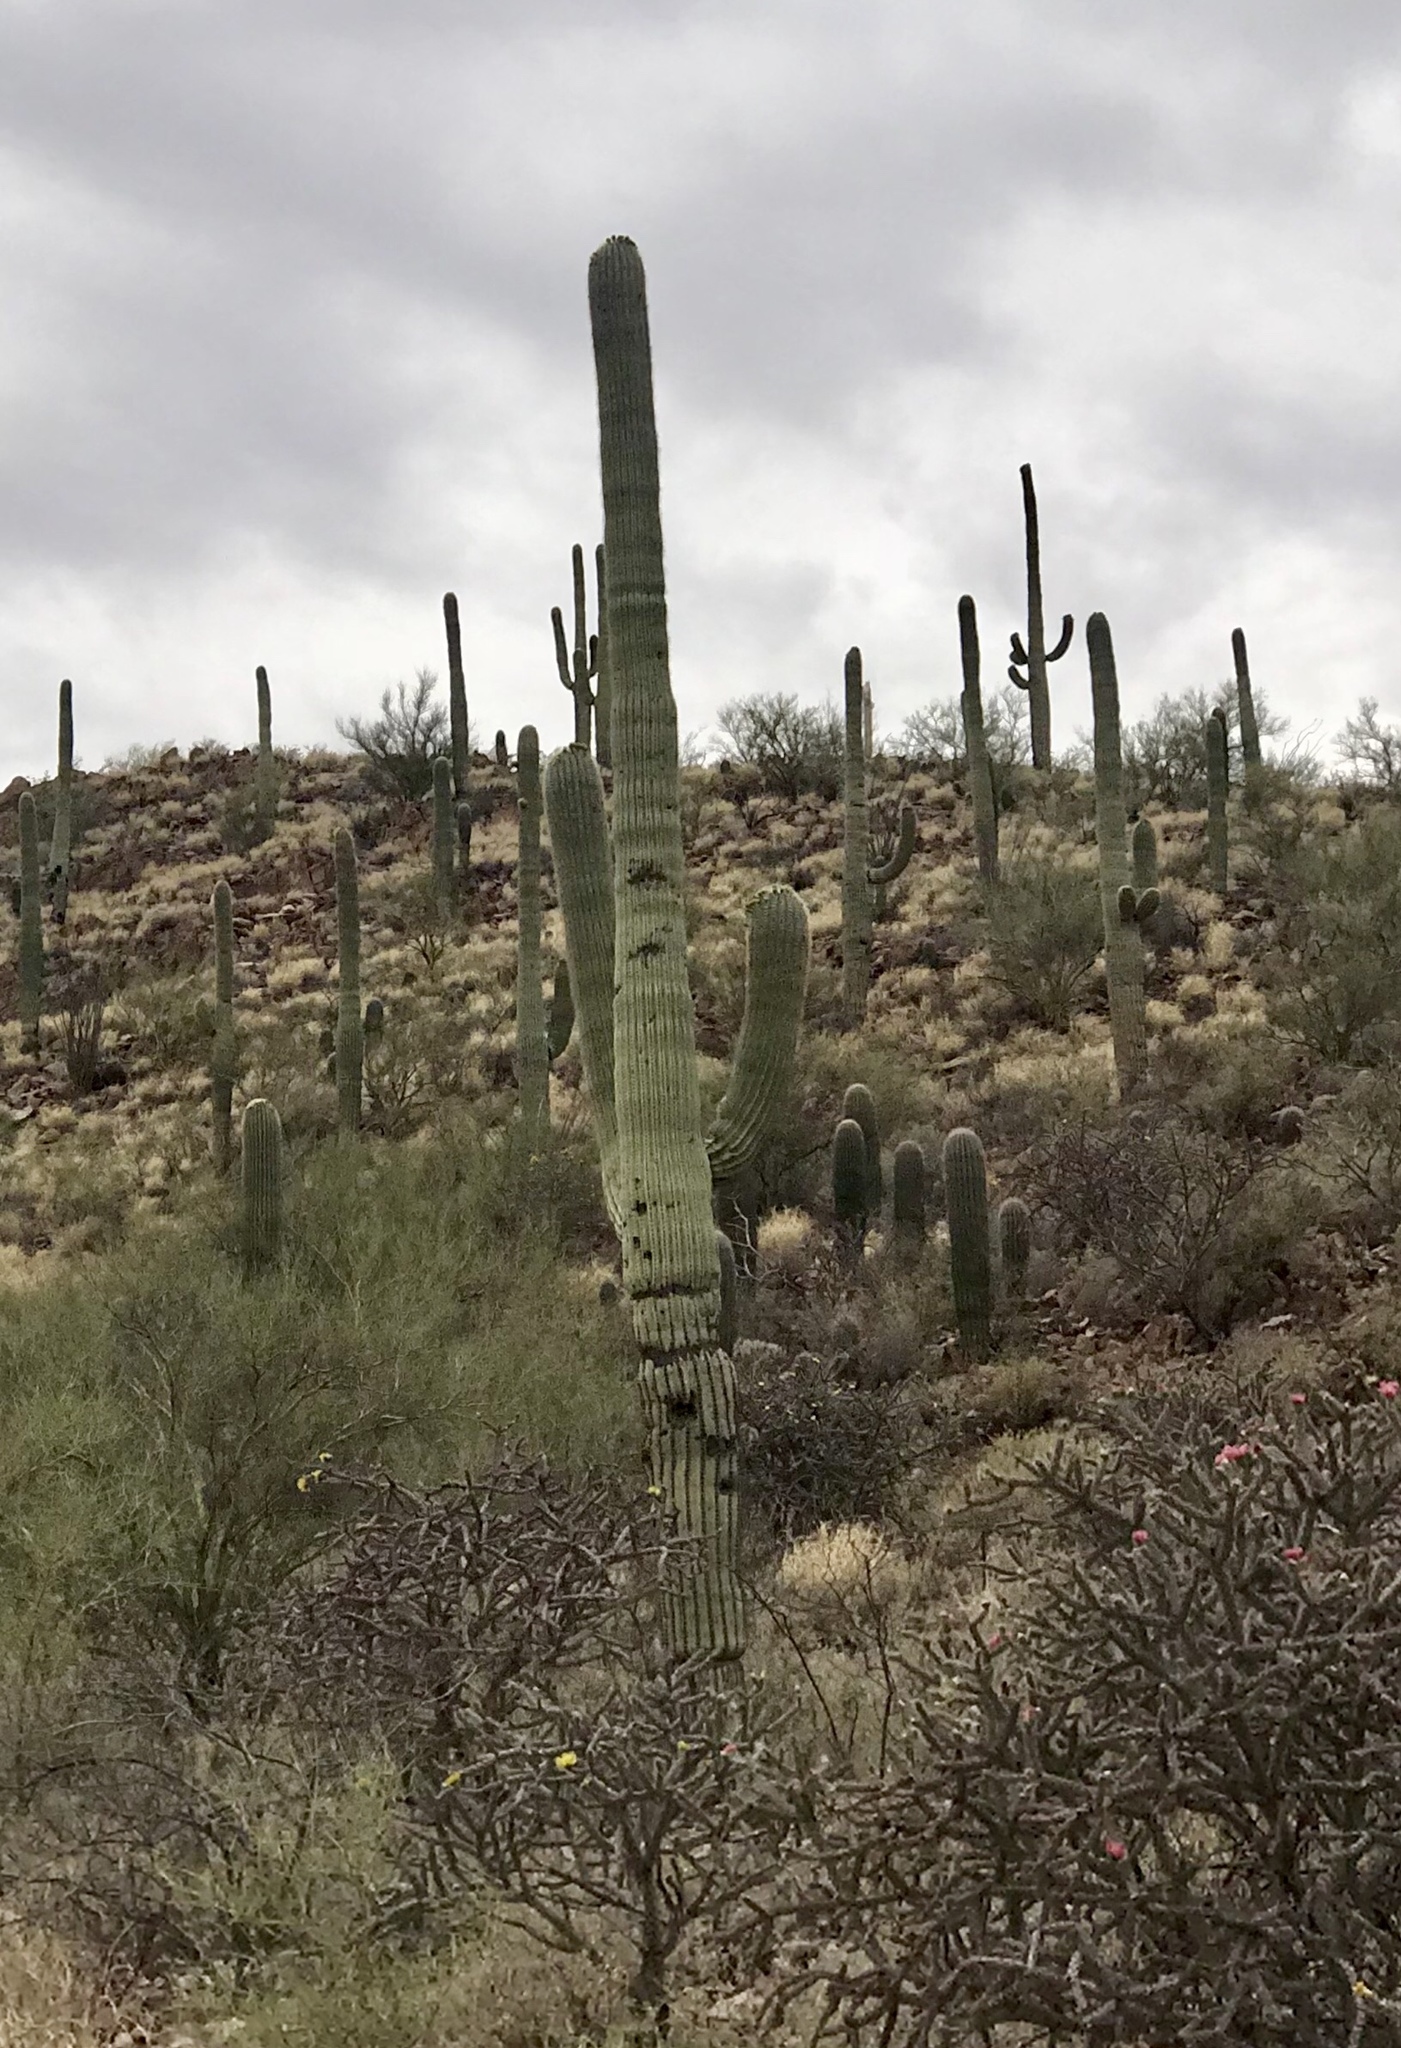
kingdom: Plantae
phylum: Tracheophyta
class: Magnoliopsida
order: Caryophyllales
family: Cactaceae
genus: Carnegiea
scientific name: Carnegiea gigantea
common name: Saguaro
